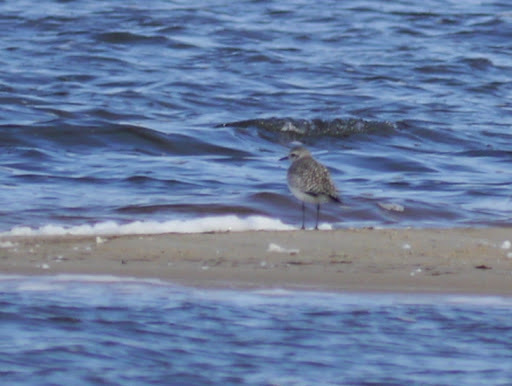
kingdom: Animalia
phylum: Chordata
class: Aves
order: Charadriiformes
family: Charadriidae
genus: Pluvialis
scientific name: Pluvialis squatarola
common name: Grey plover
